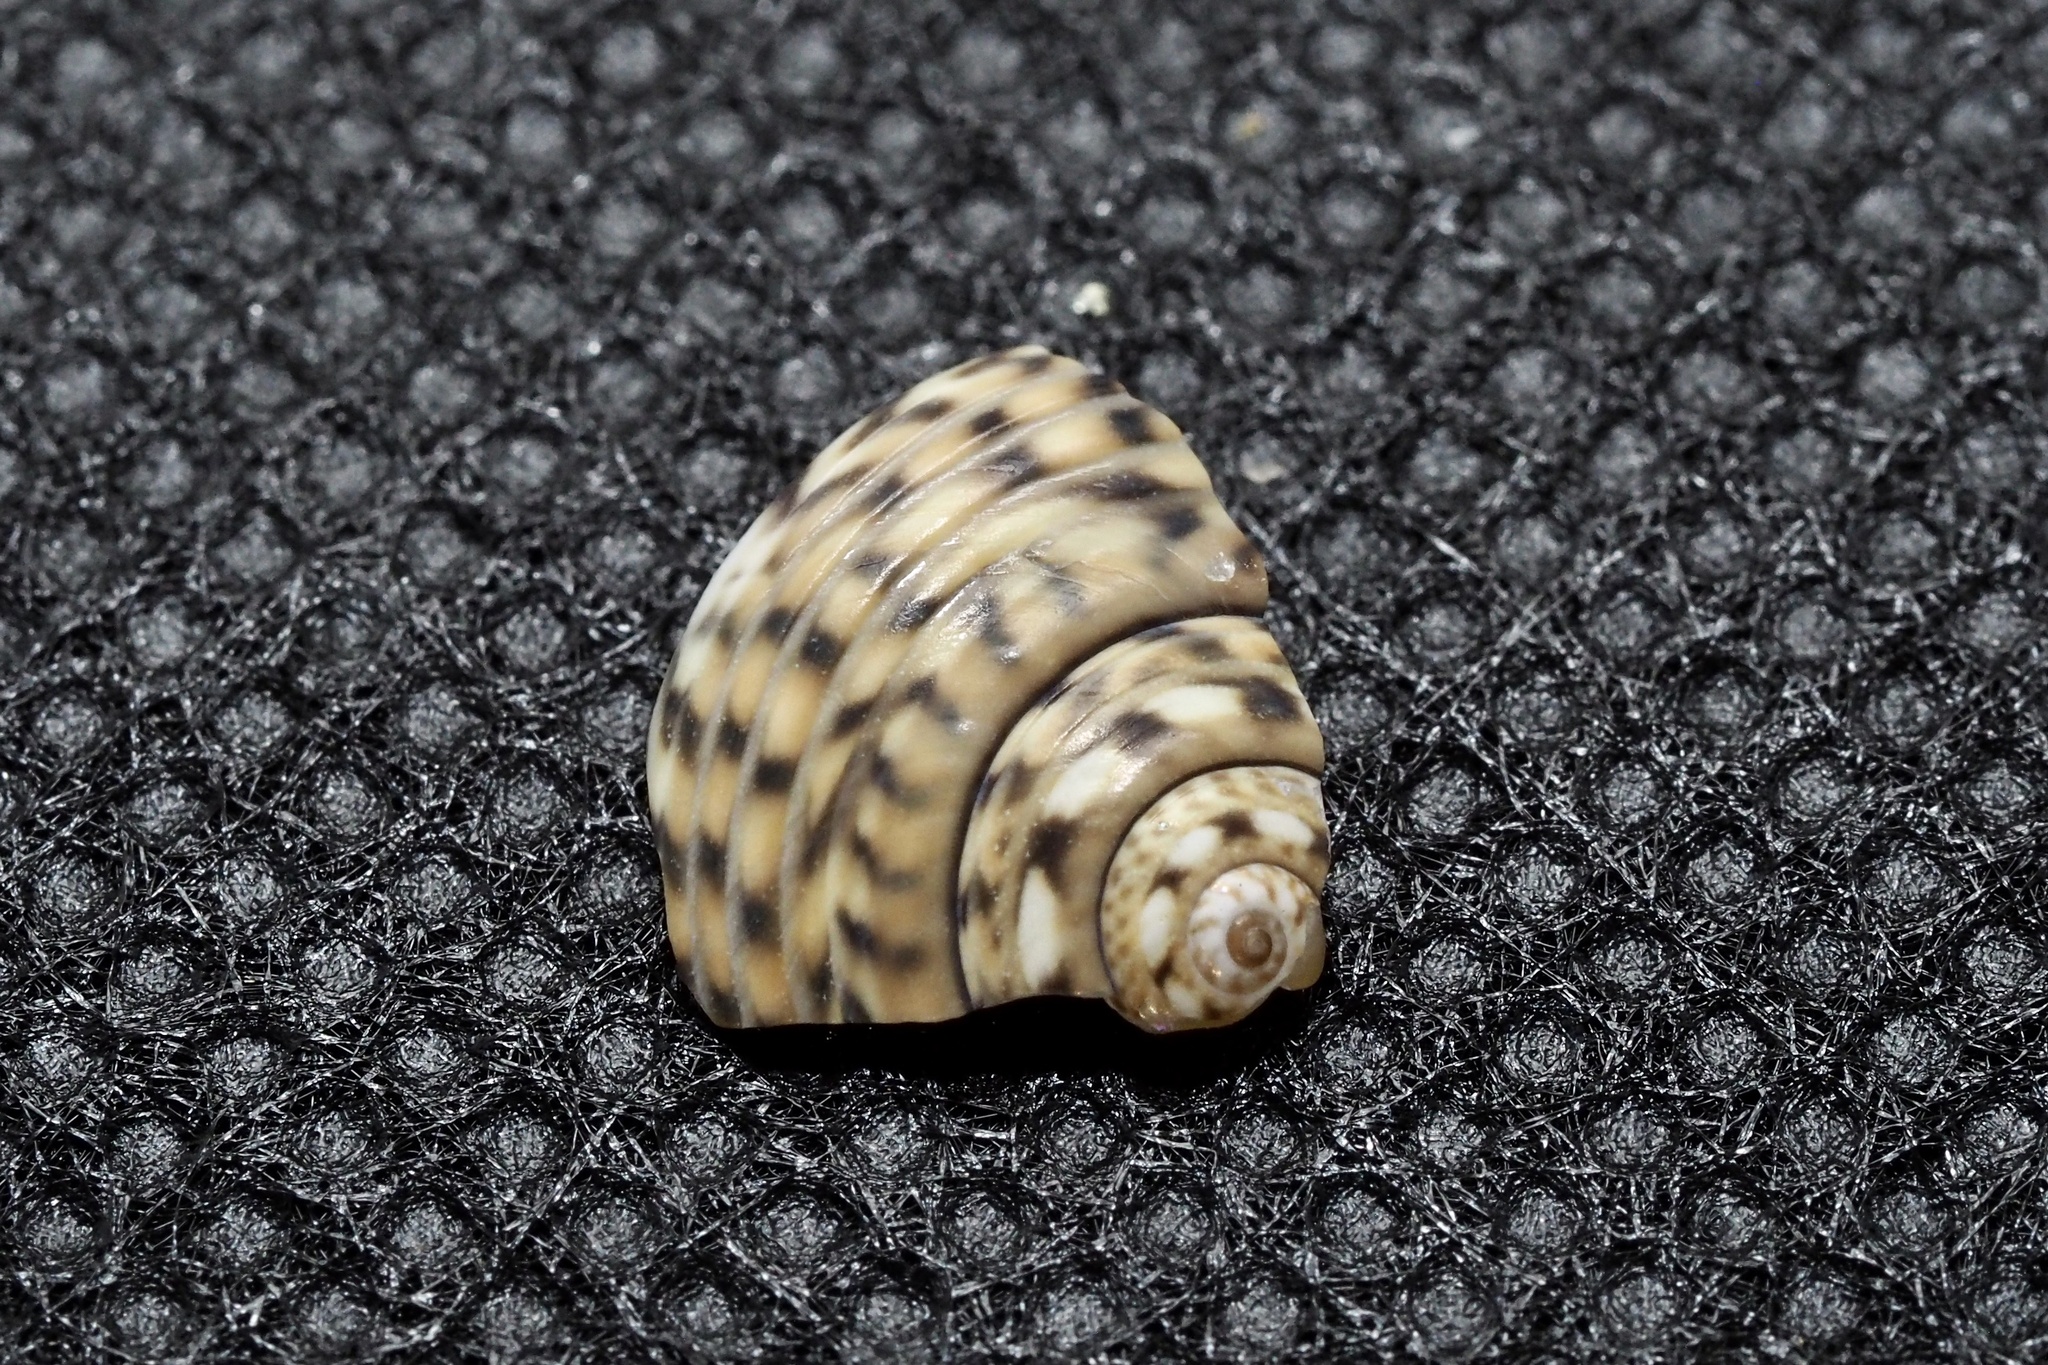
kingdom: Animalia
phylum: Mollusca
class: Gastropoda
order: Trochida
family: Trochidae
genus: Umbonium
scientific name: Umbonium costatum
